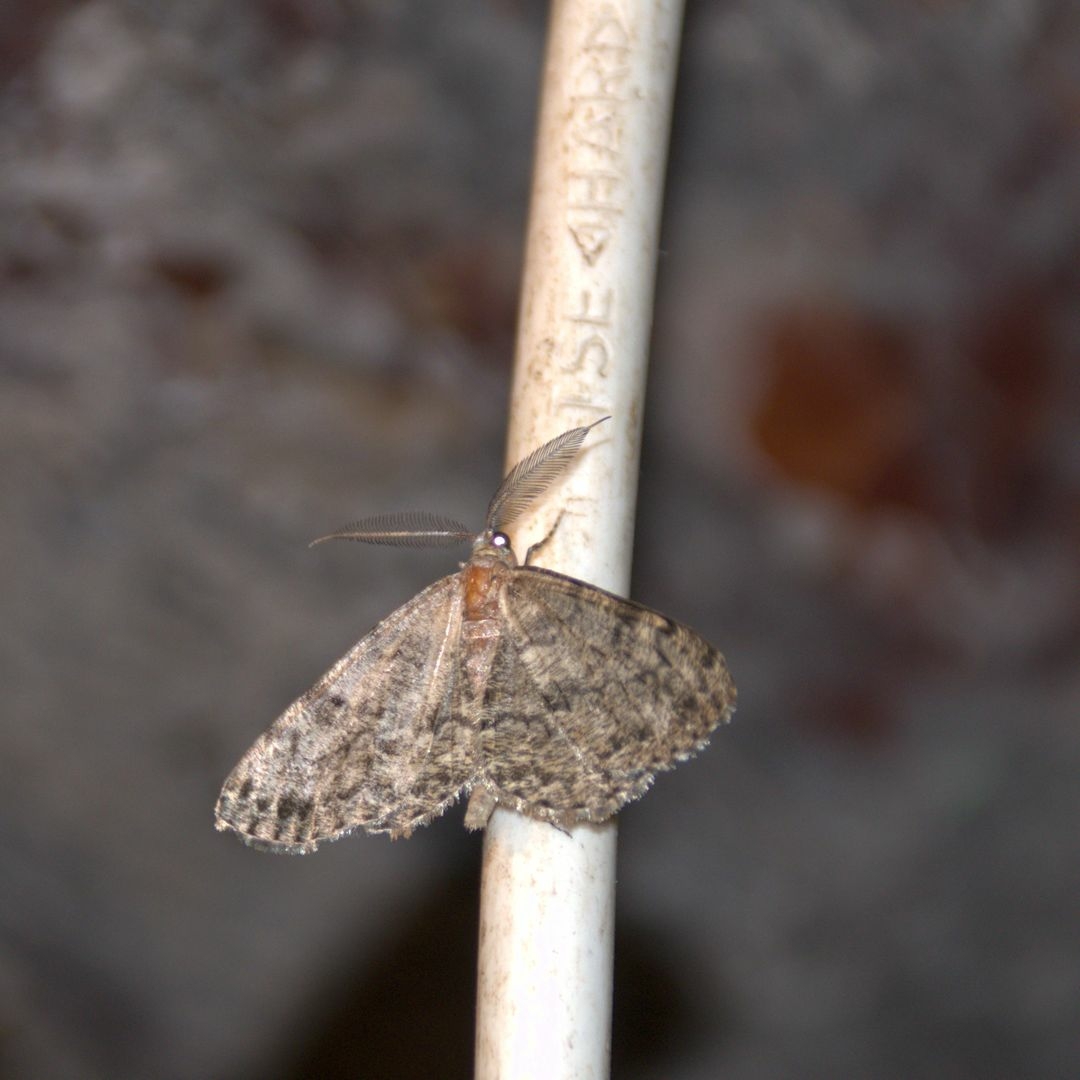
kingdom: Animalia
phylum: Arthropoda
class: Insecta
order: Lepidoptera
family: Geometridae
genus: Deileptenia
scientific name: Deileptenia ribeata
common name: Satin beauty
